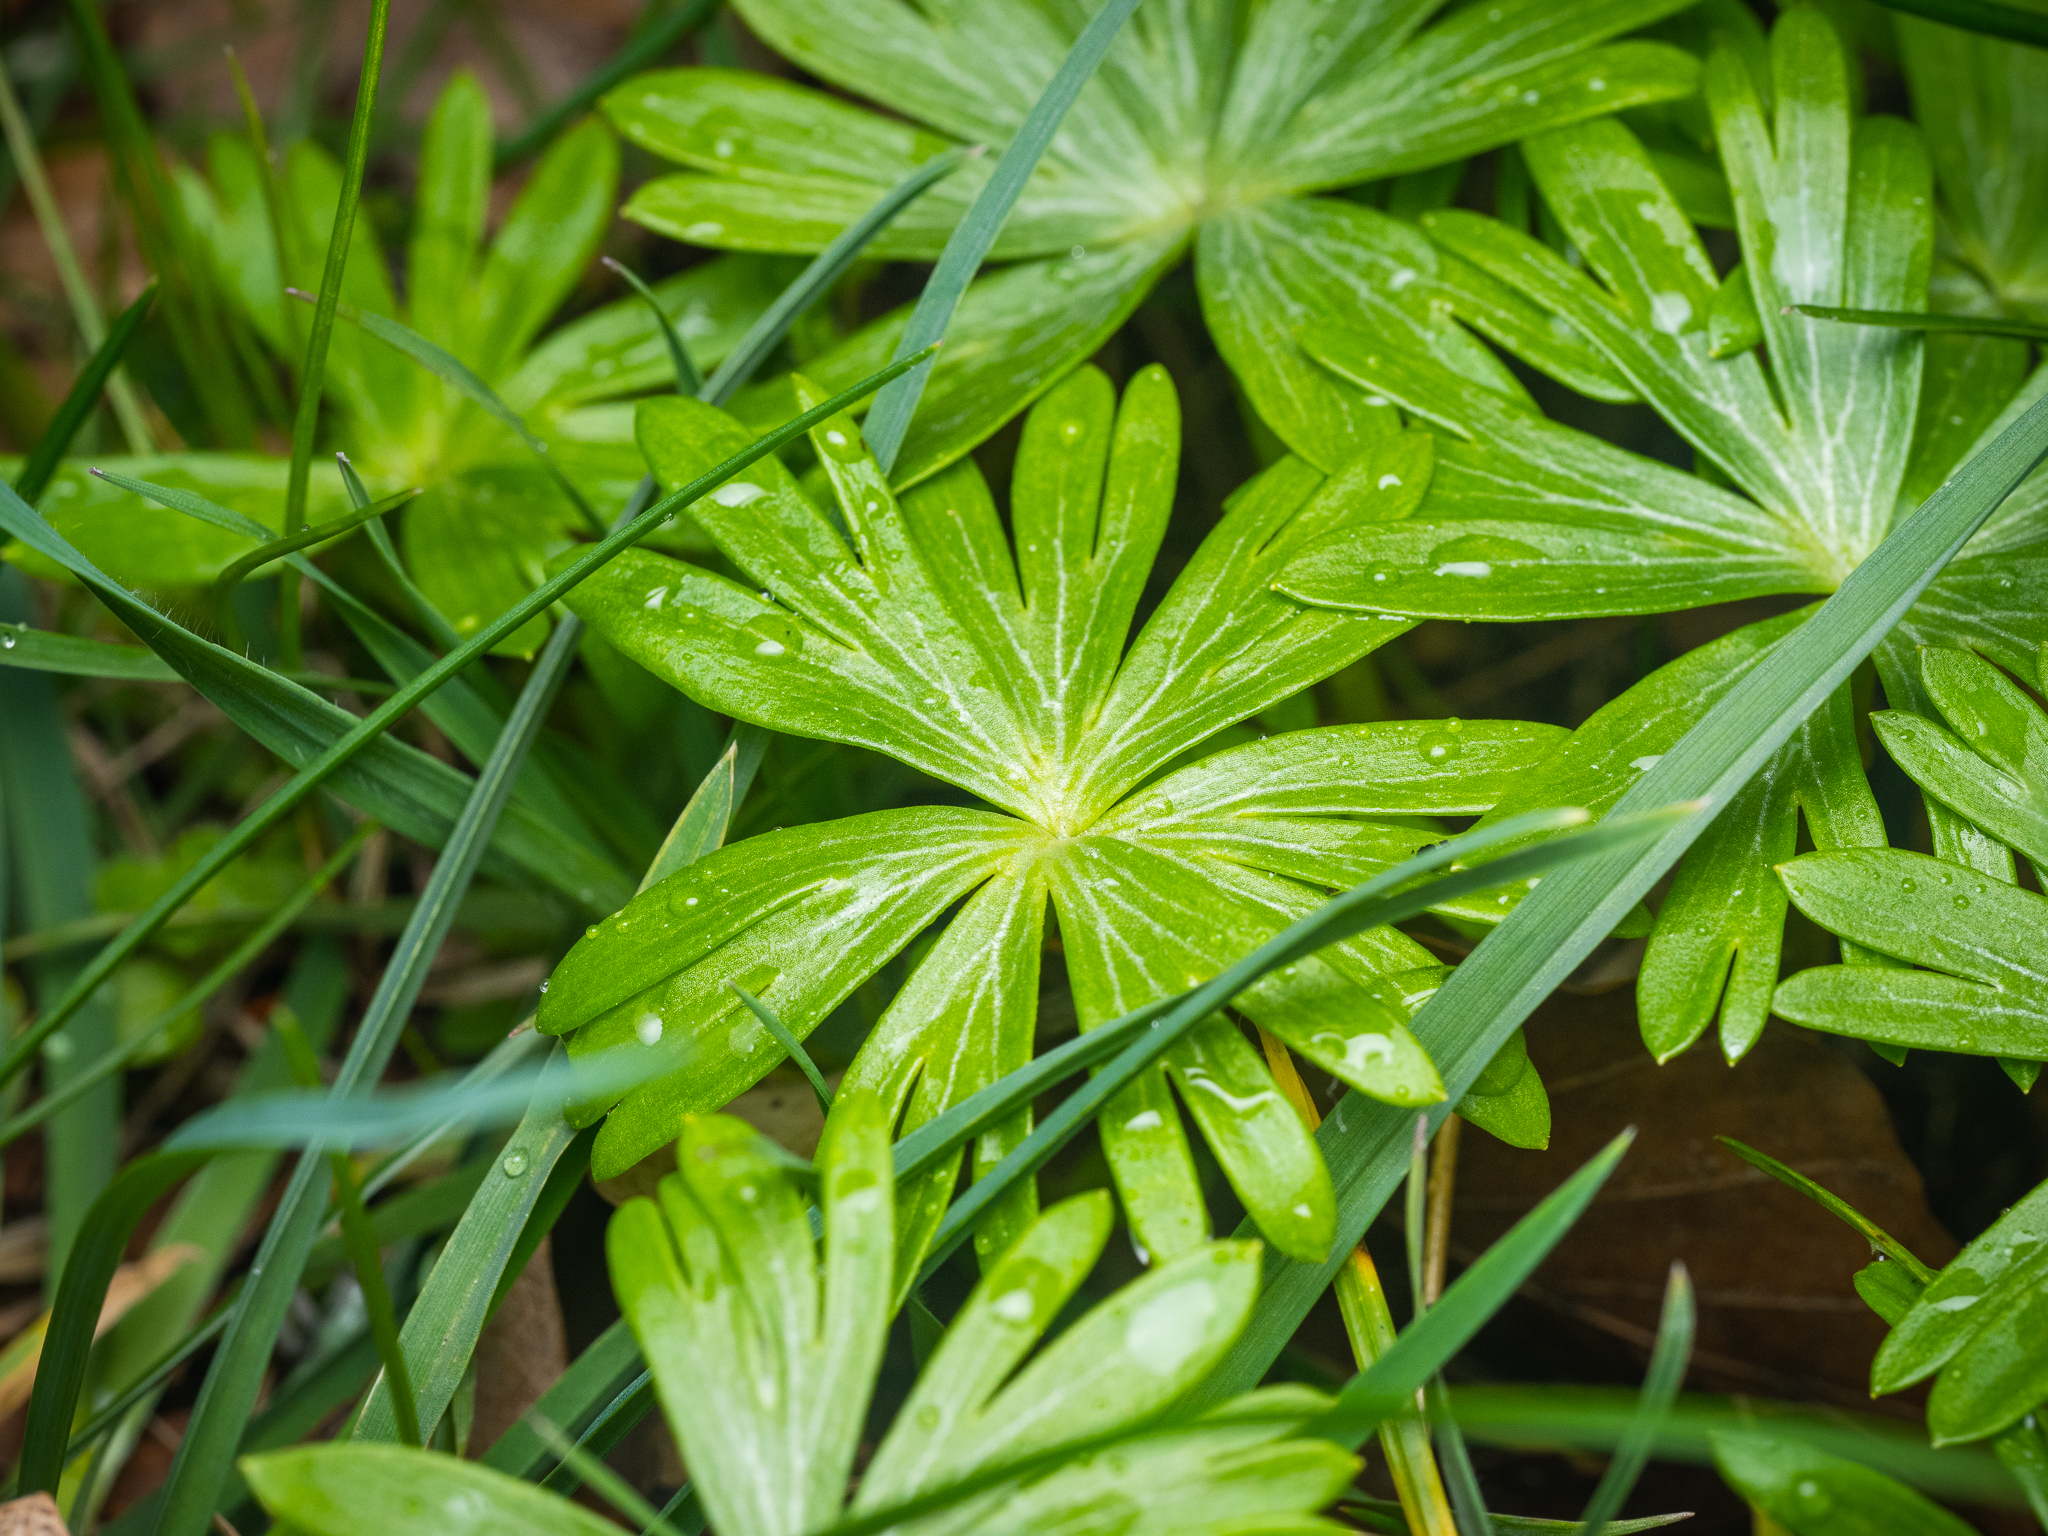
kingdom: Plantae
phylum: Tracheophyta
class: Magnoliopsida
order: Ranunculales
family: Ranunculaceae
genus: Eranthis
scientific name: Eranthis hyemalis
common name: Winter aconite
